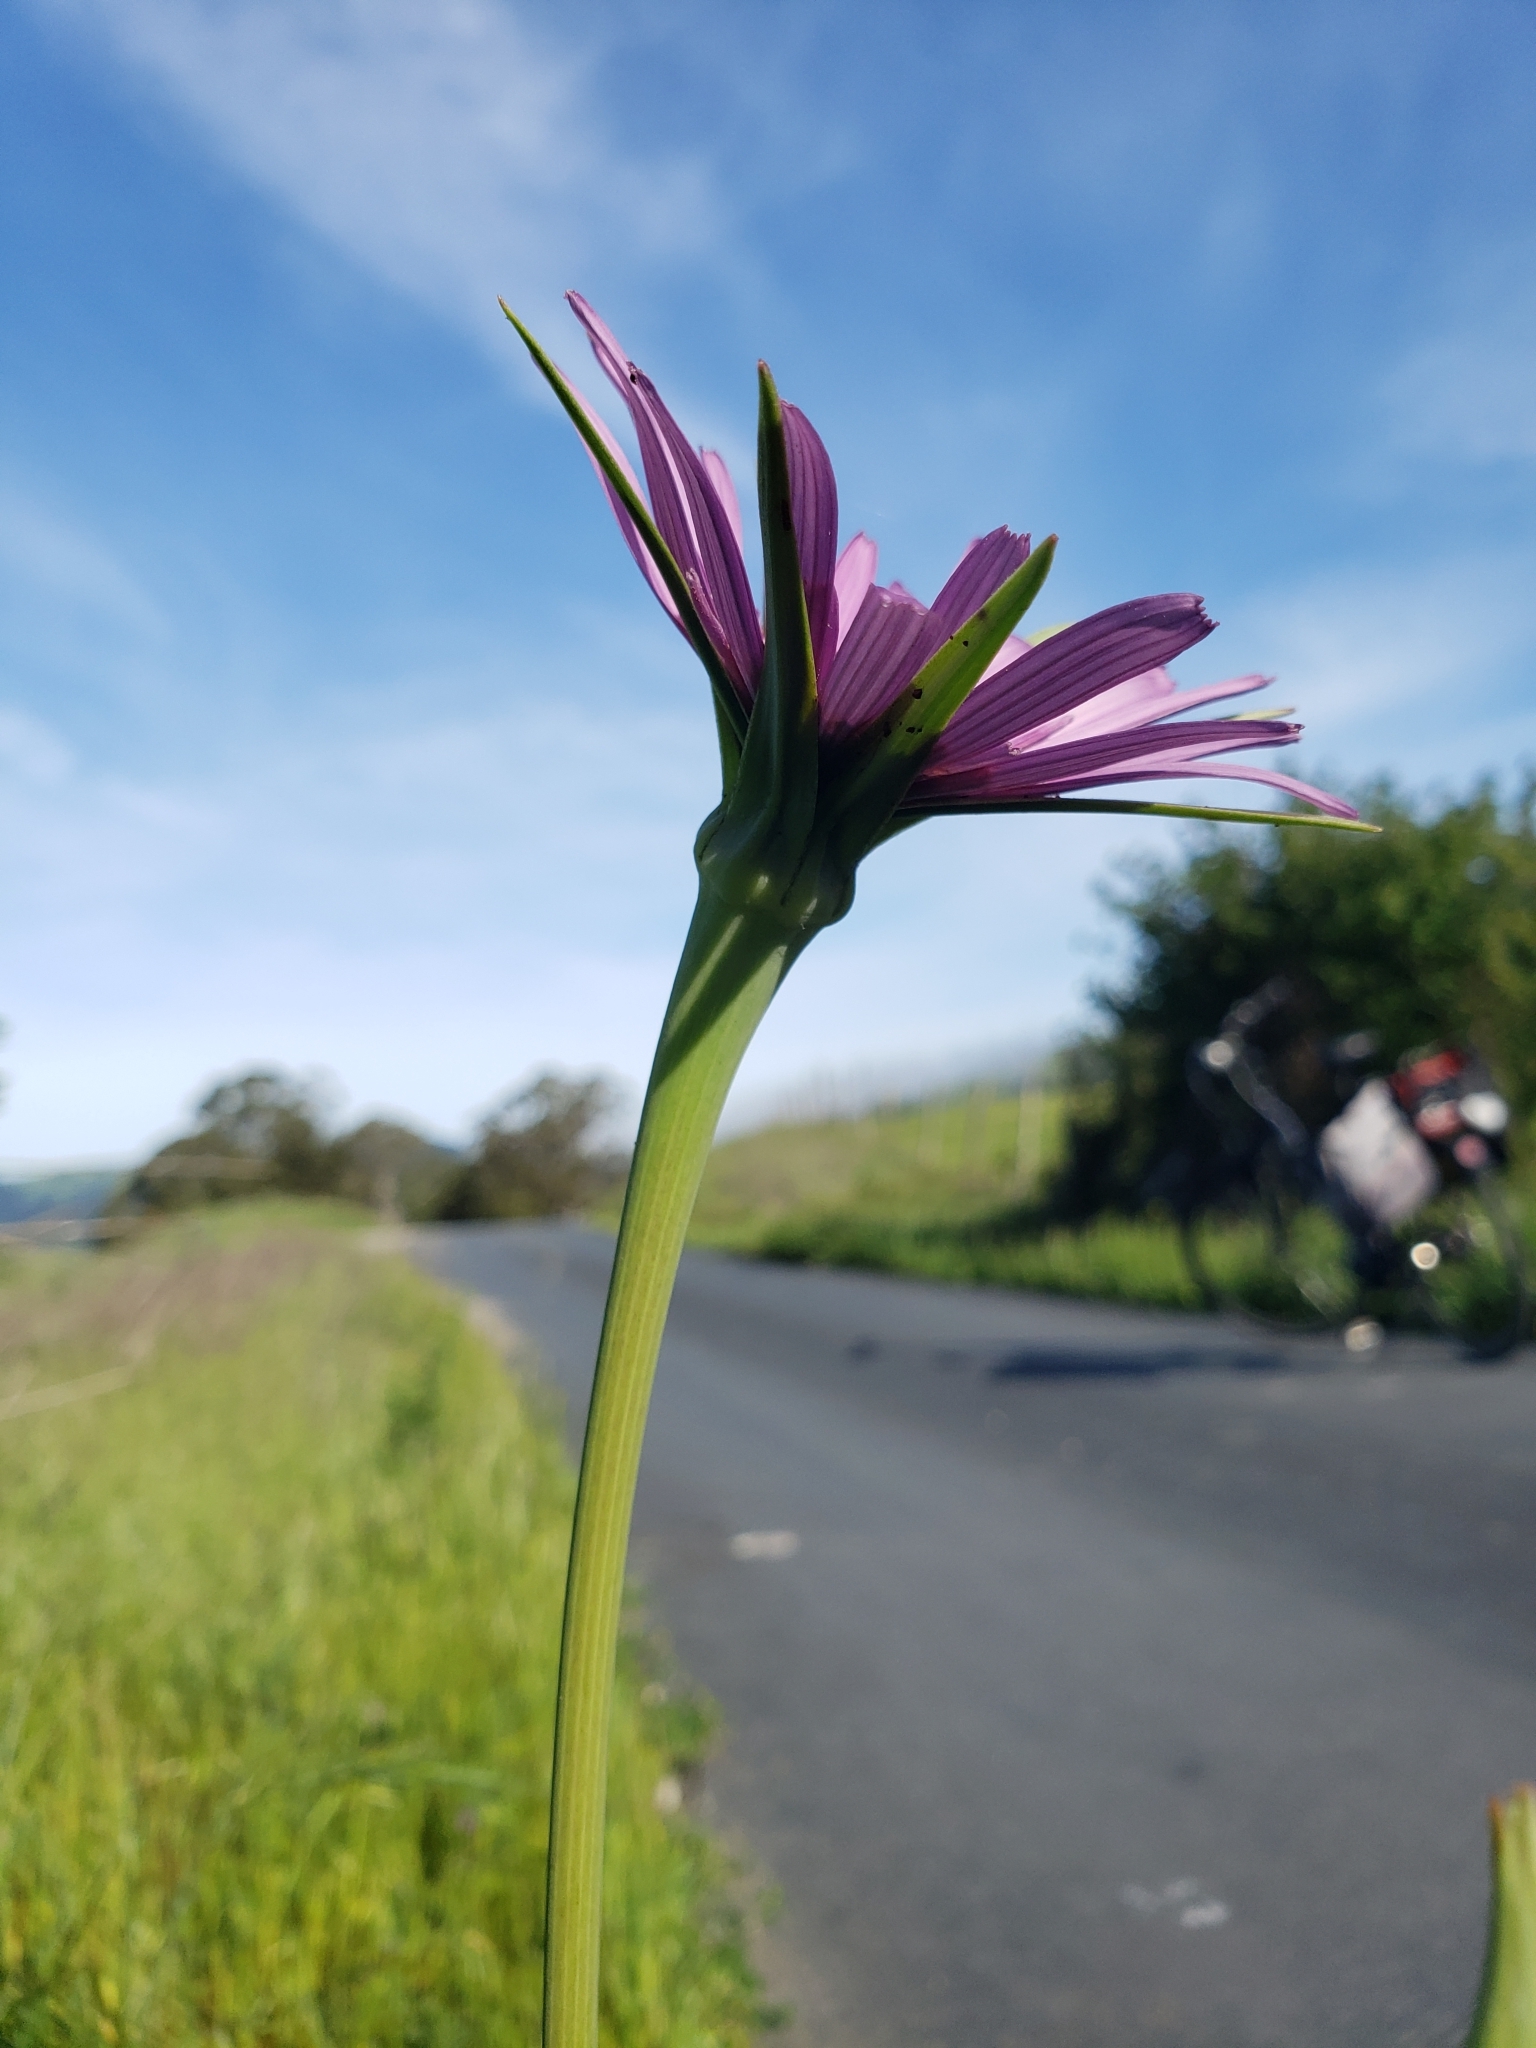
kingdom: Plantae
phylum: Tracheophyta
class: Magnoliopsida
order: Asterales
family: Asteraceae
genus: Tragopogon
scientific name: Tragopogon porrifolius
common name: Salsify
